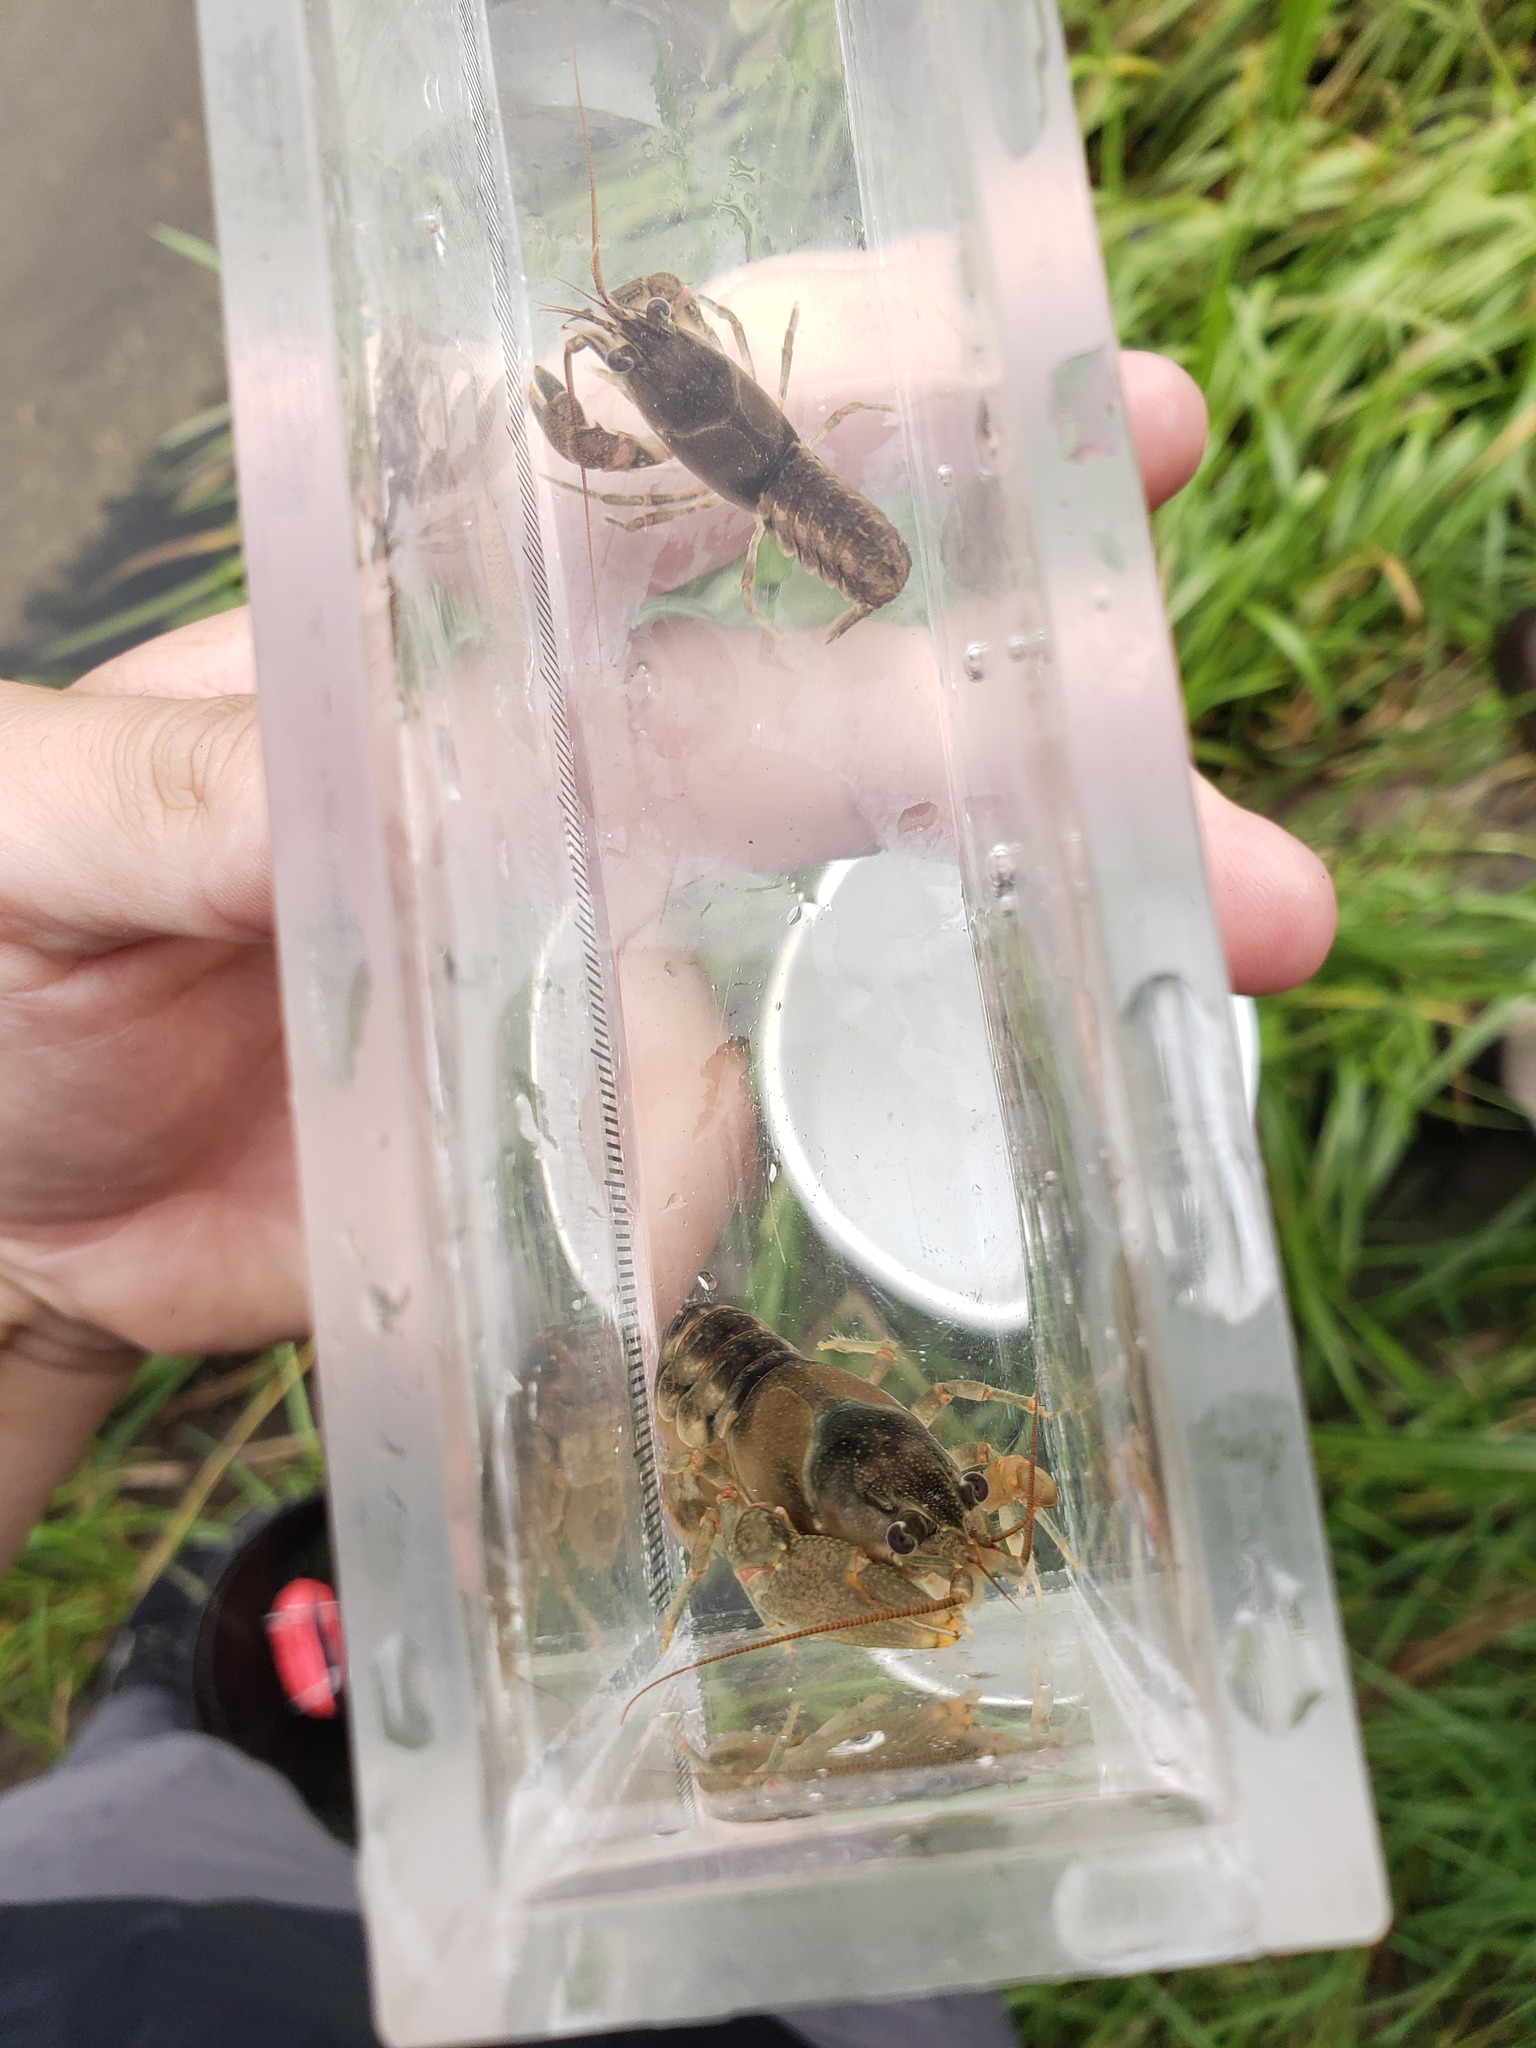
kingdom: Animalia
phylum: Arthropoda
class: Malacostraca
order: Decapoda
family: Cambaridae
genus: Faxonius
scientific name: Faxonius propinquus
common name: Northern clearwater crayfish
